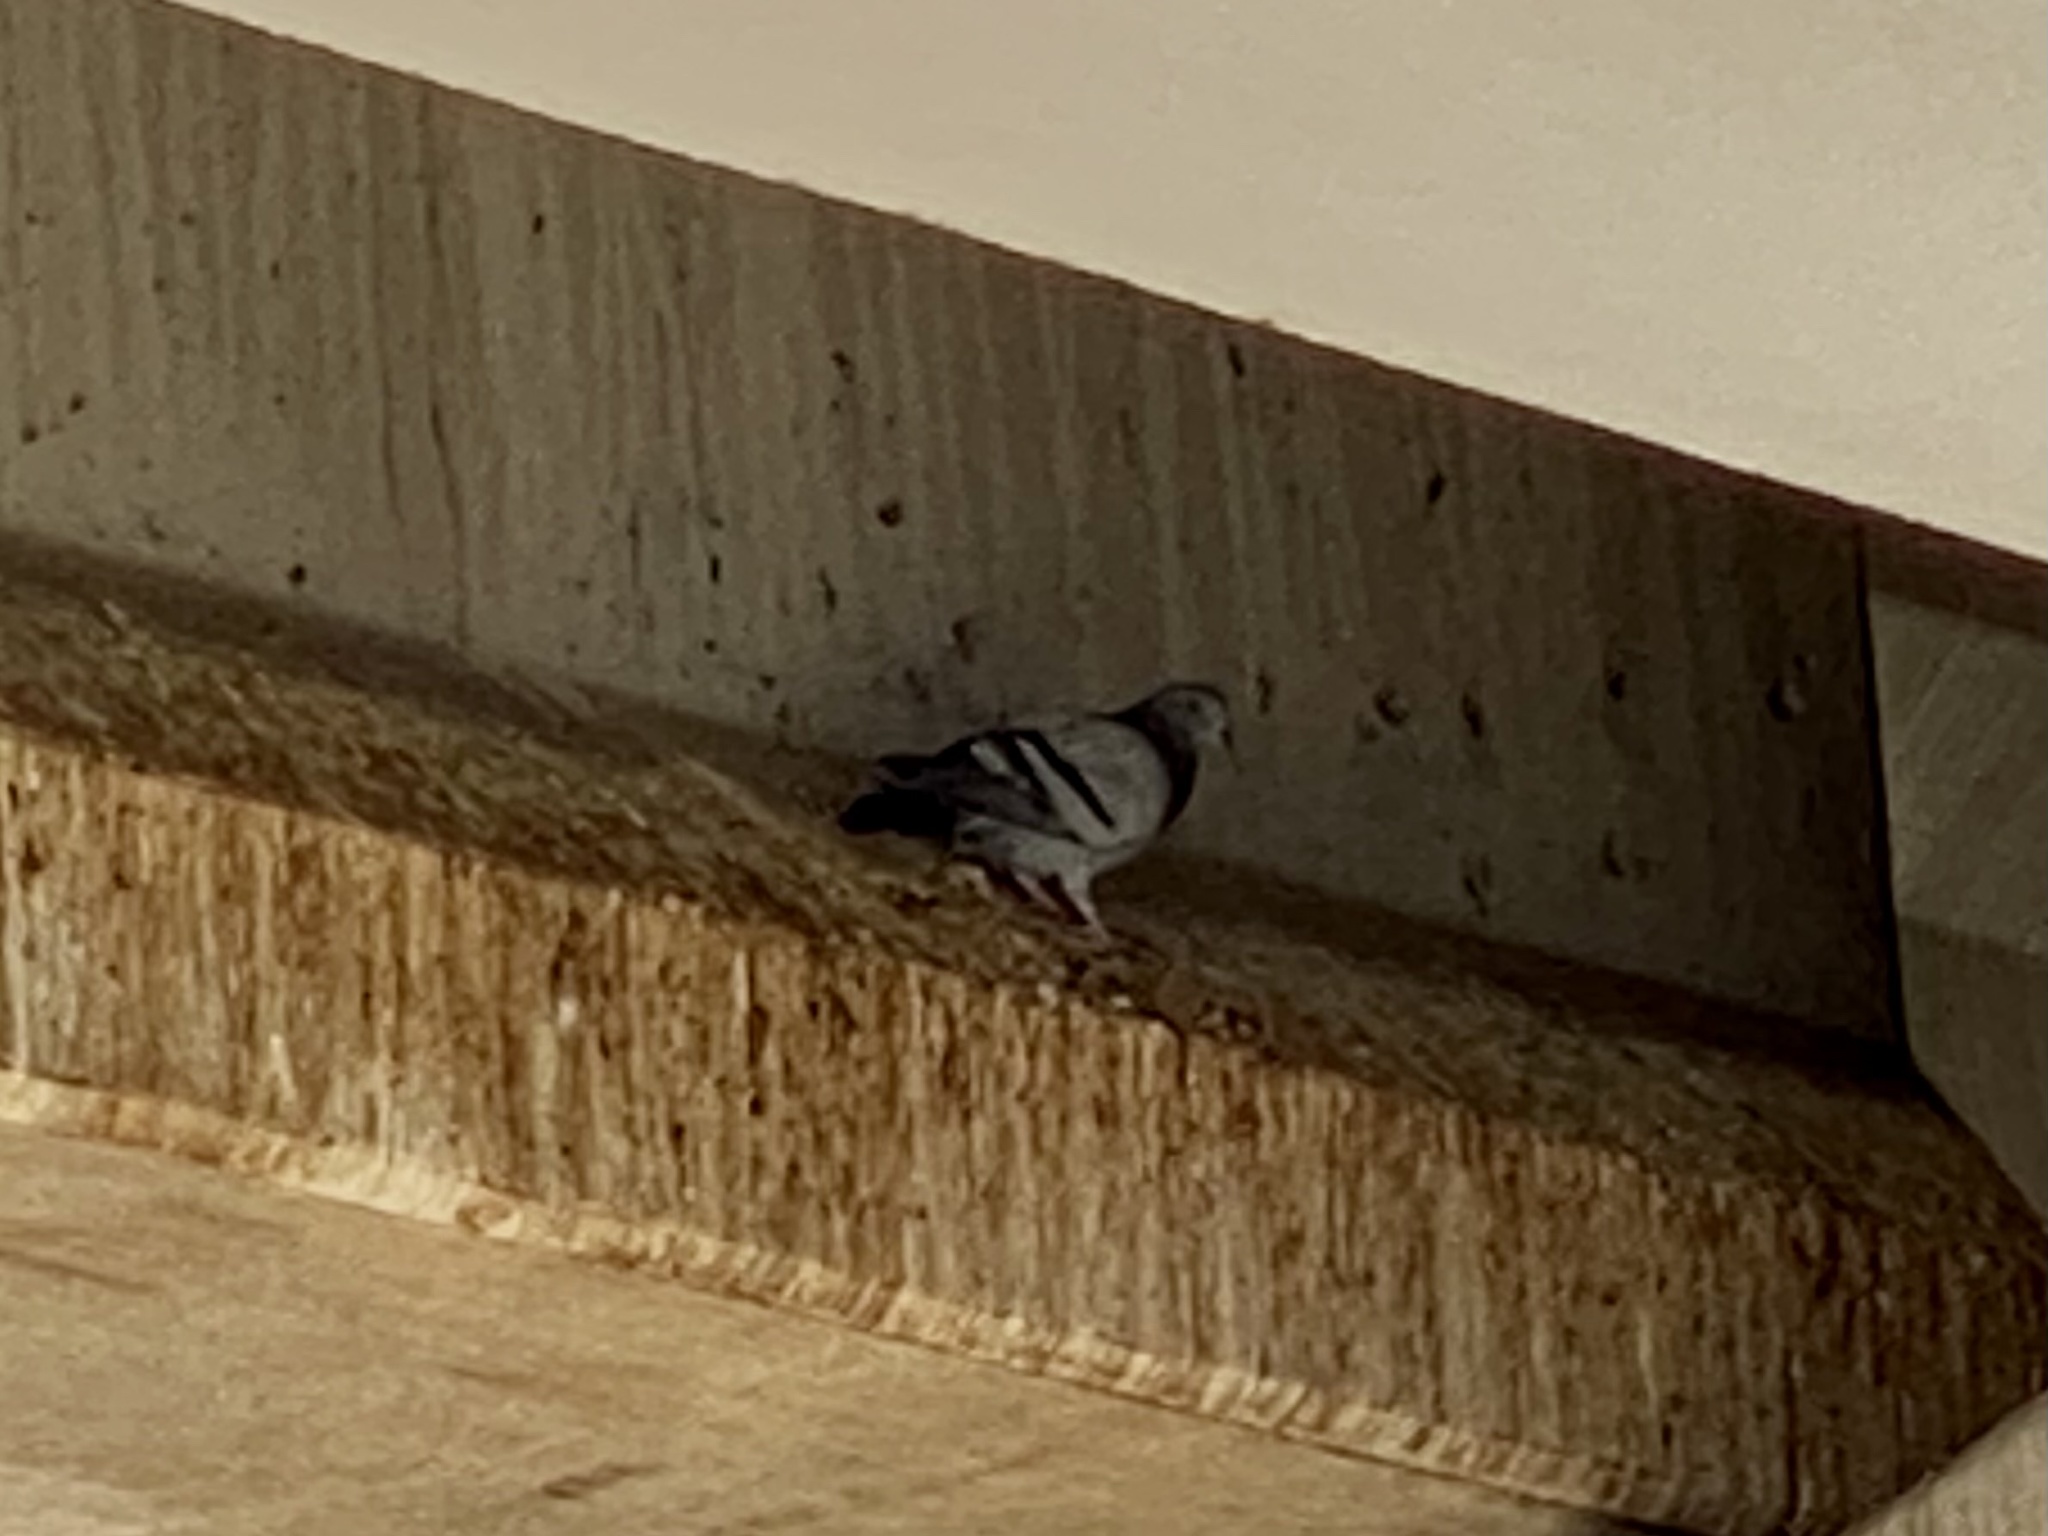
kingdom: Animalia
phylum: Chordata
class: Aves
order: Columbiformes
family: Columbidae
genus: Columba
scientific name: Columba livia
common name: Rock pigeon
